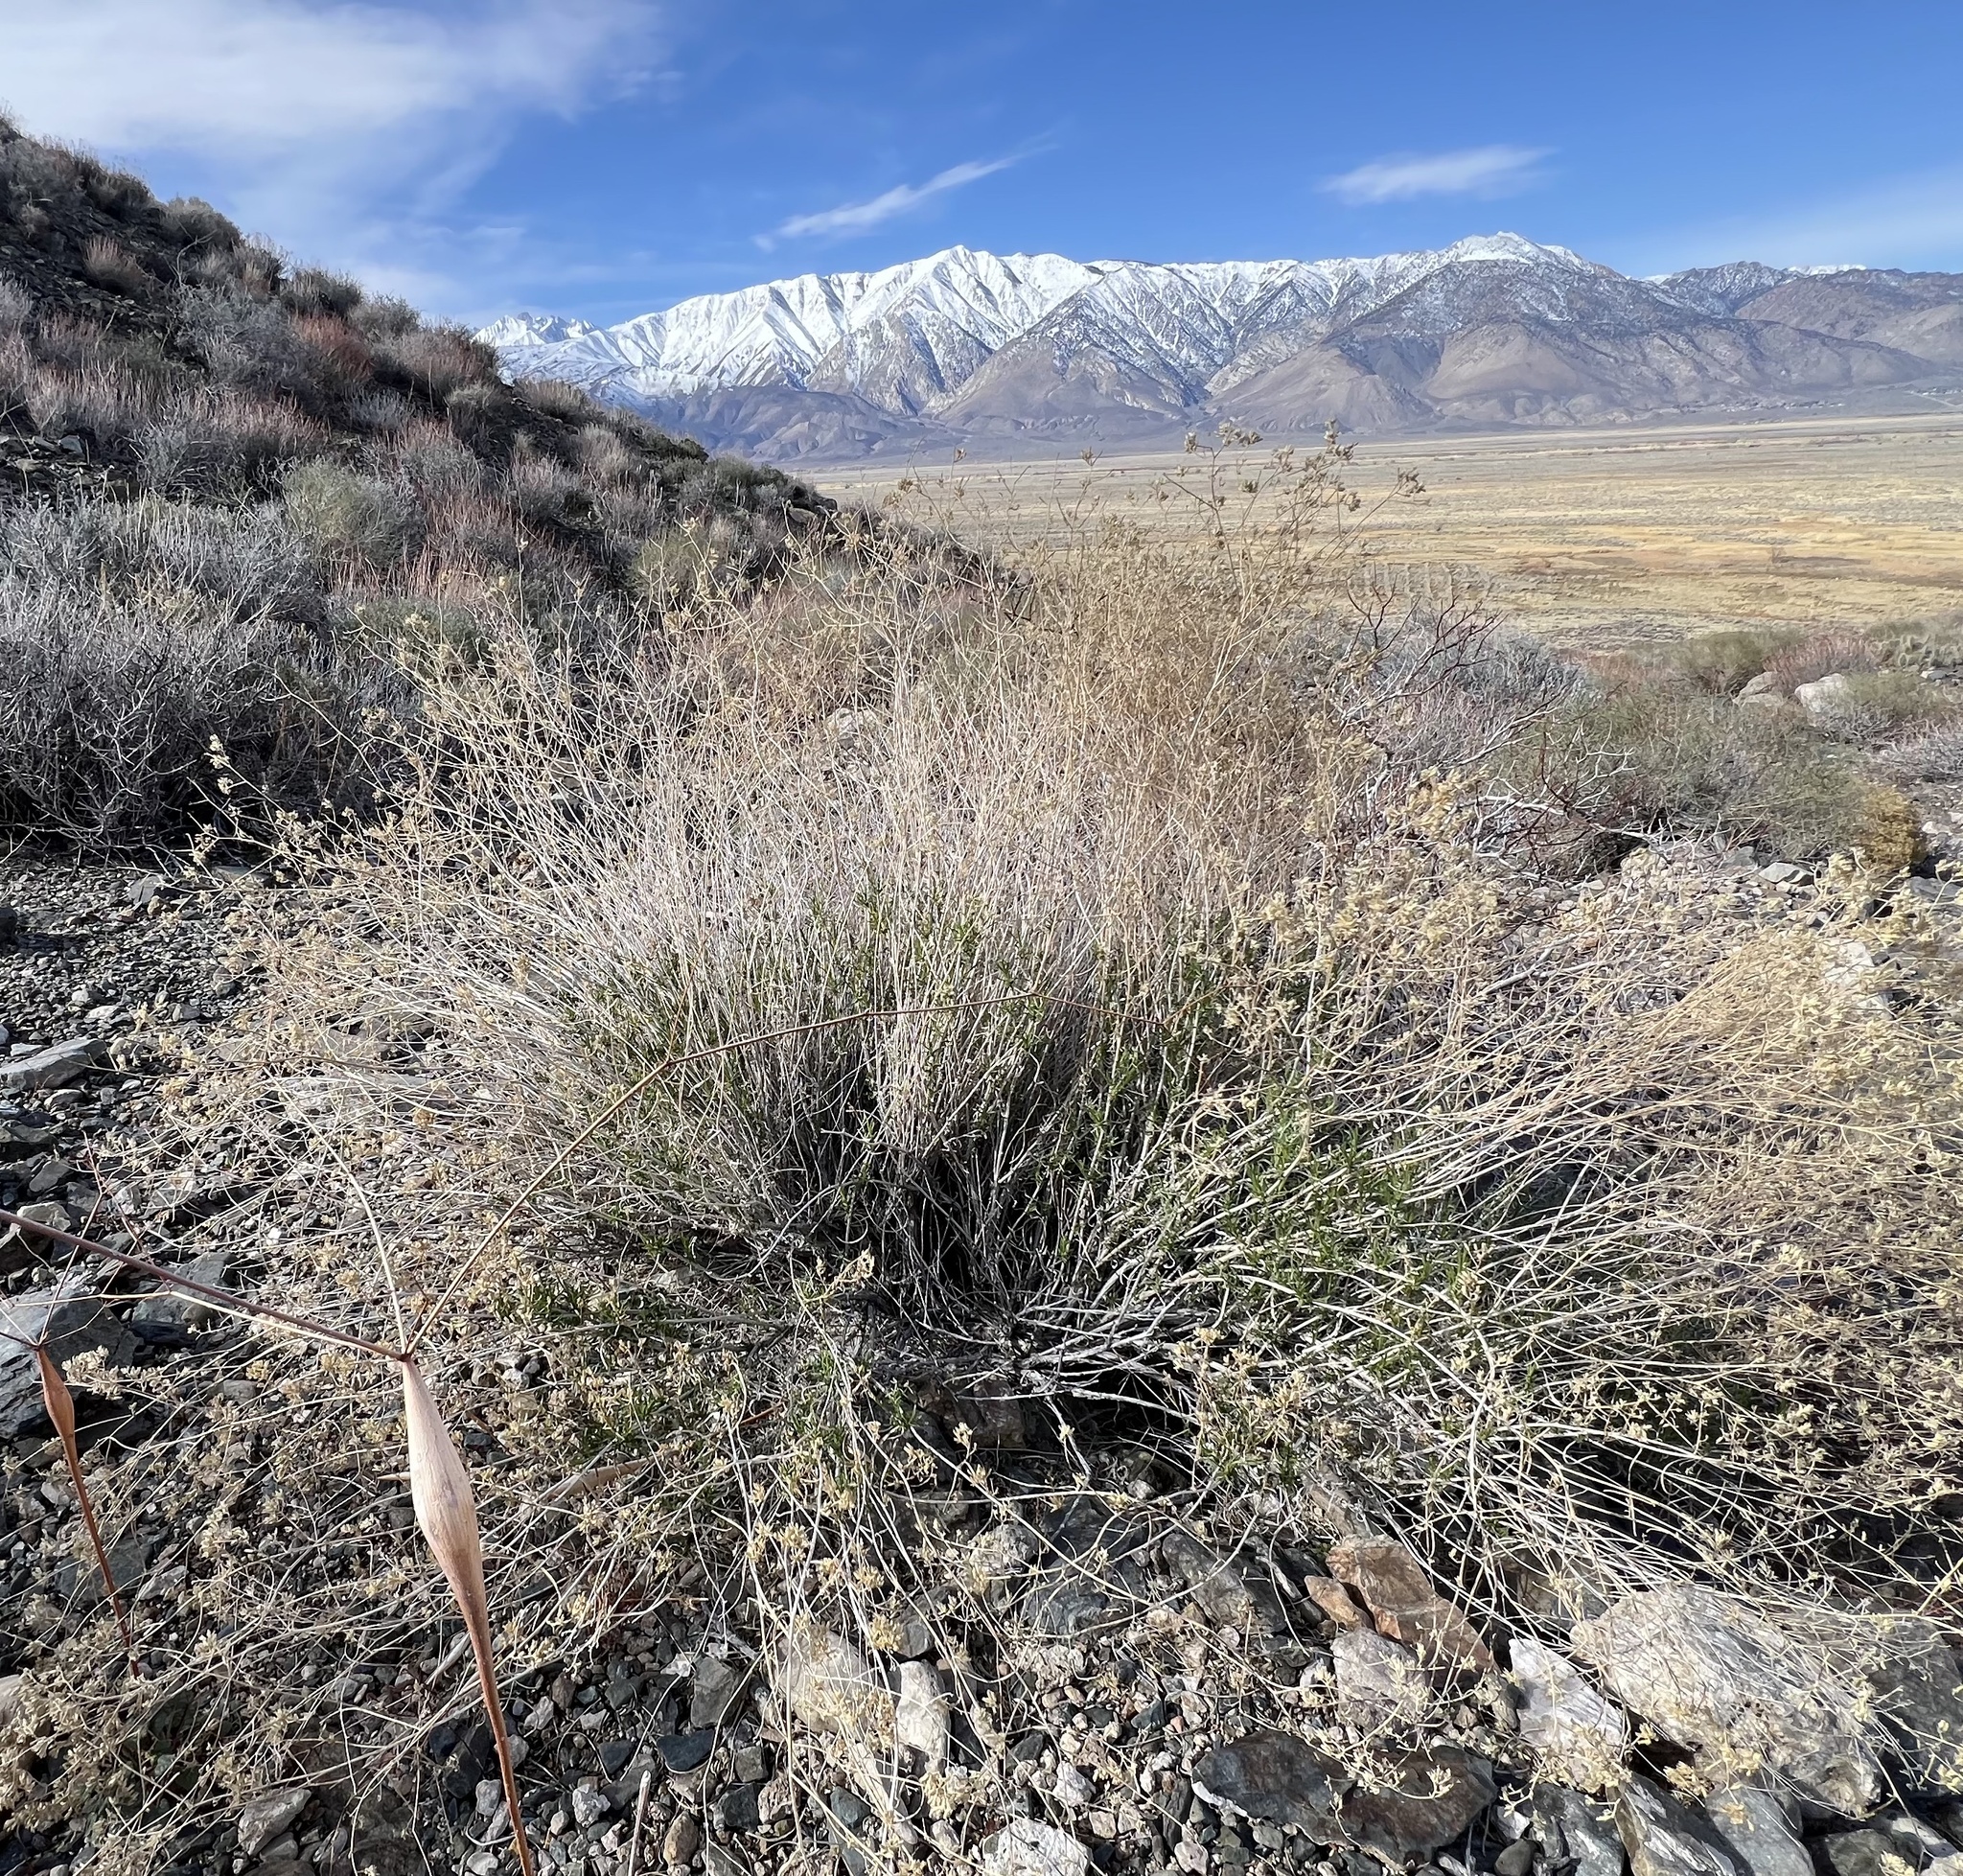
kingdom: Plantae
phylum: Tracheophyta
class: Magnoliopsida
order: Asterales
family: Asteraceae
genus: Gutierrezia
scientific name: Gutierrezia microcephala
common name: Thread snakeweed
